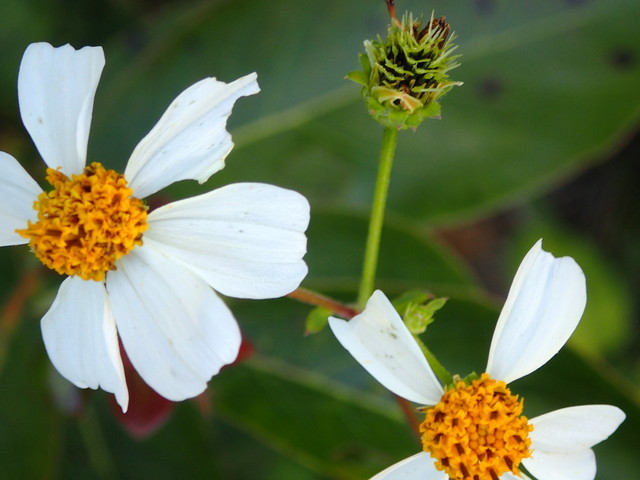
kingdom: Plantae
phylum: Tracheophyta
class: Magnoliopsida
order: Asterales
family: Asteraceae
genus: Bidens
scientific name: Bidens alba
